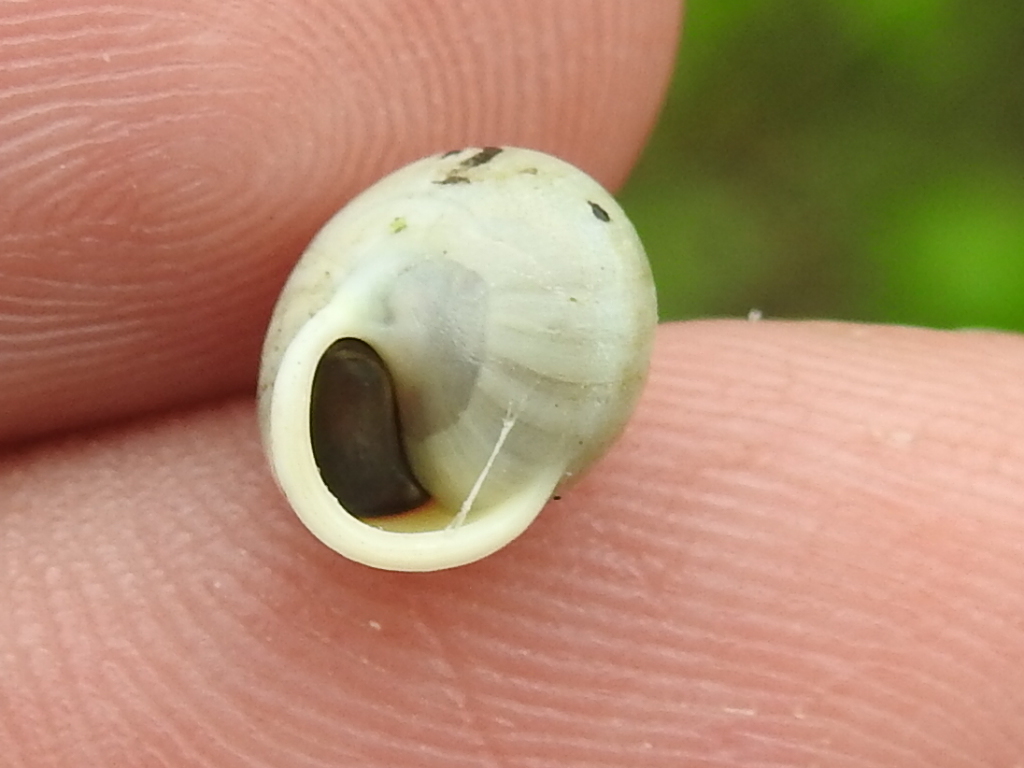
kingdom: Animalia
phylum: Mollusca
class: Gastropoda
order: Cycloneritida
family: Helicinidae
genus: Helicina
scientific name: Helicina orbiculata
